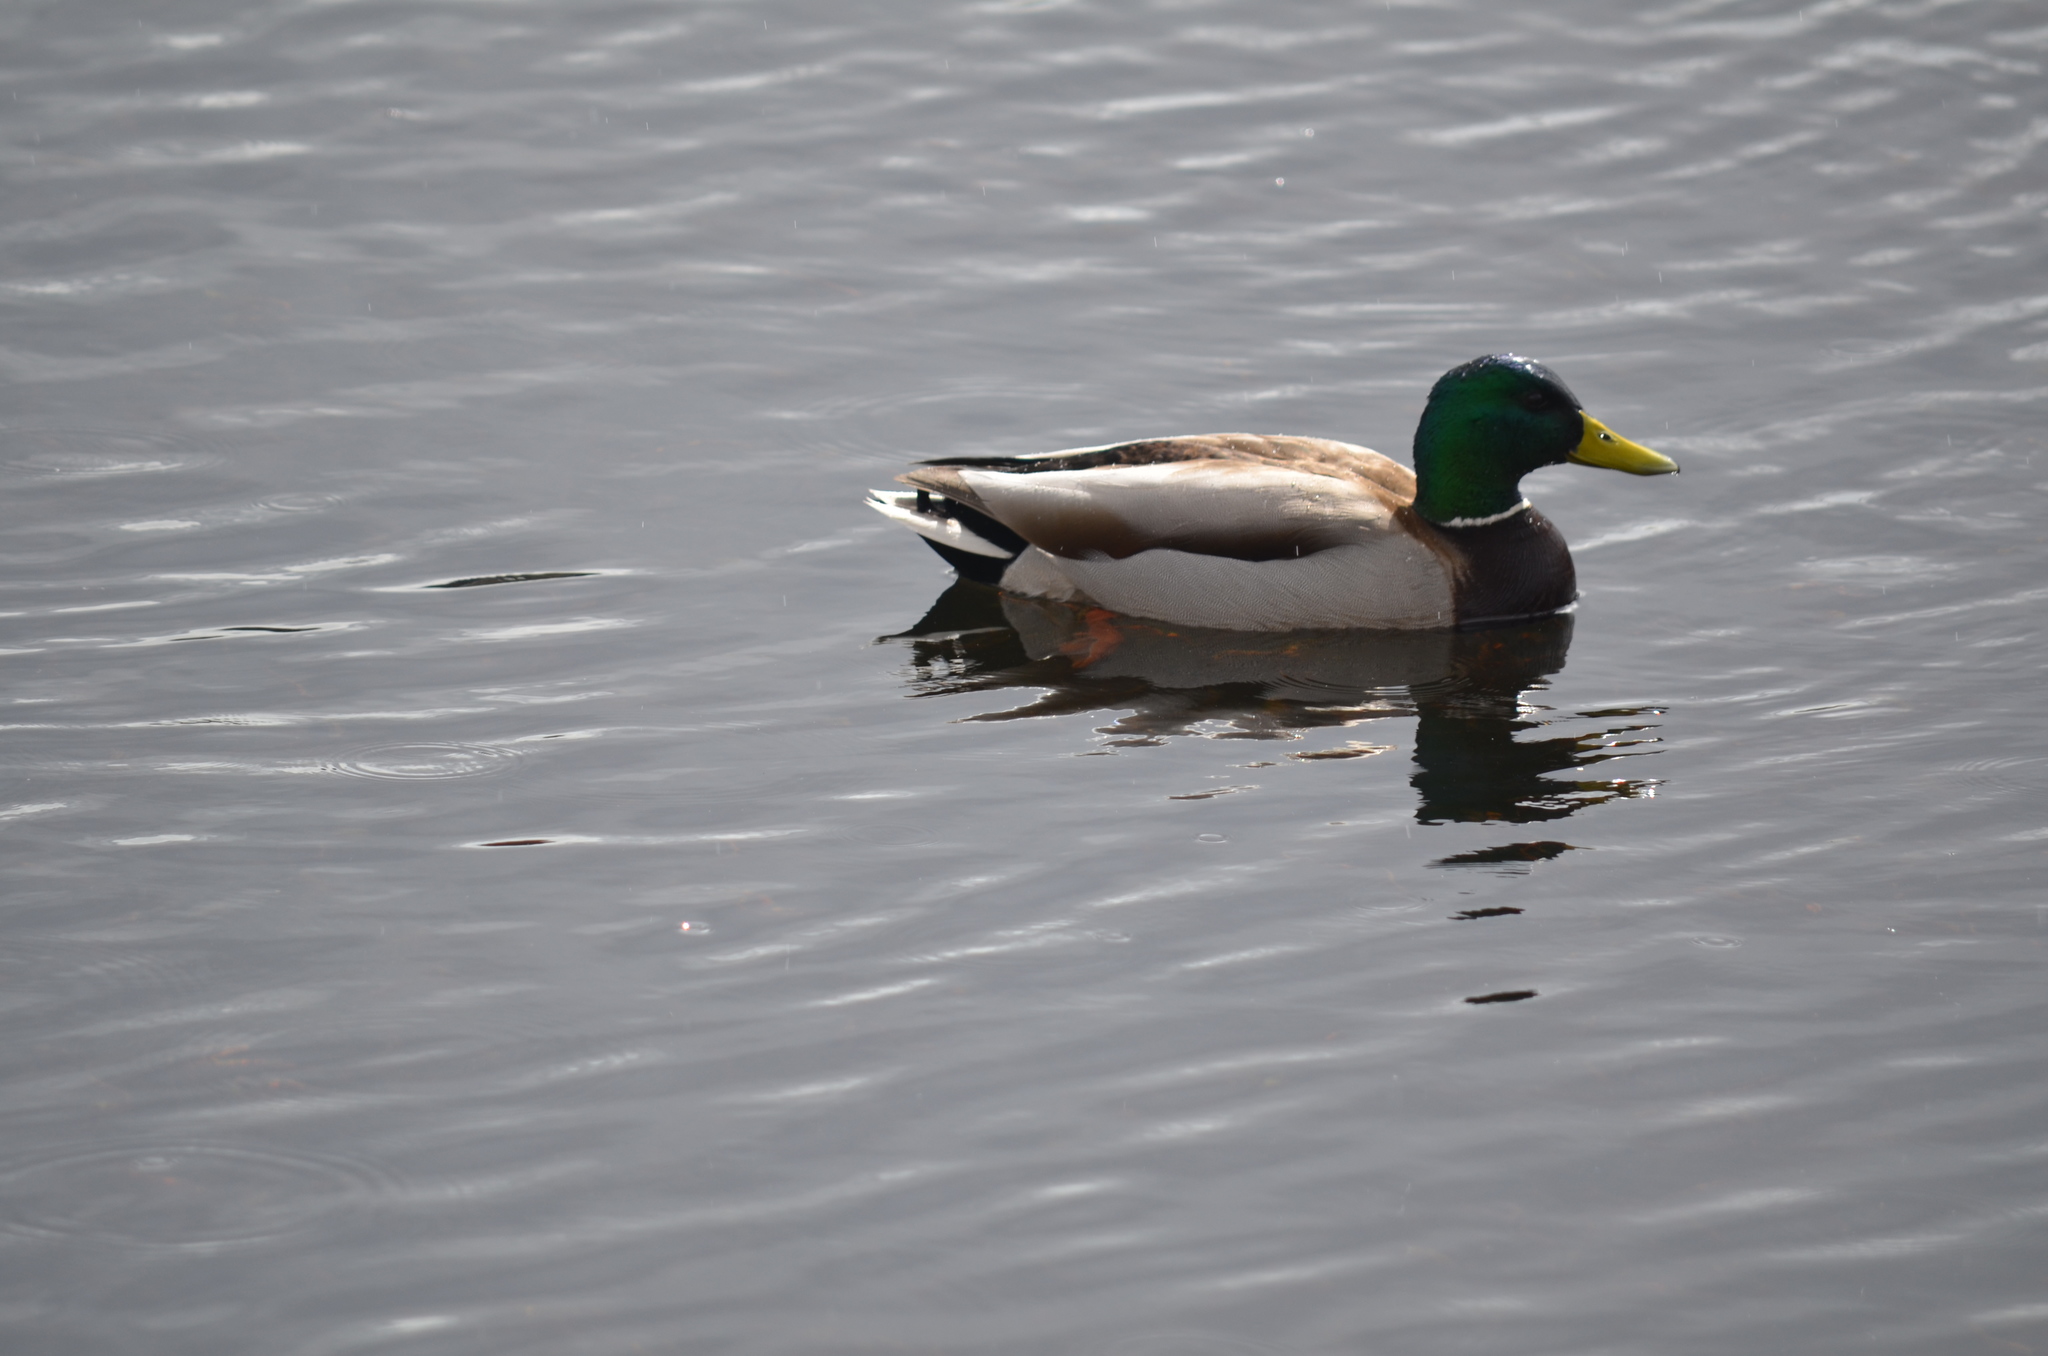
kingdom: Animalia
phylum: Chordata
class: Aves
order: Anseriformes
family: Anatidae
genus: Anas
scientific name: Anas platyrhynchos
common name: Mallard
